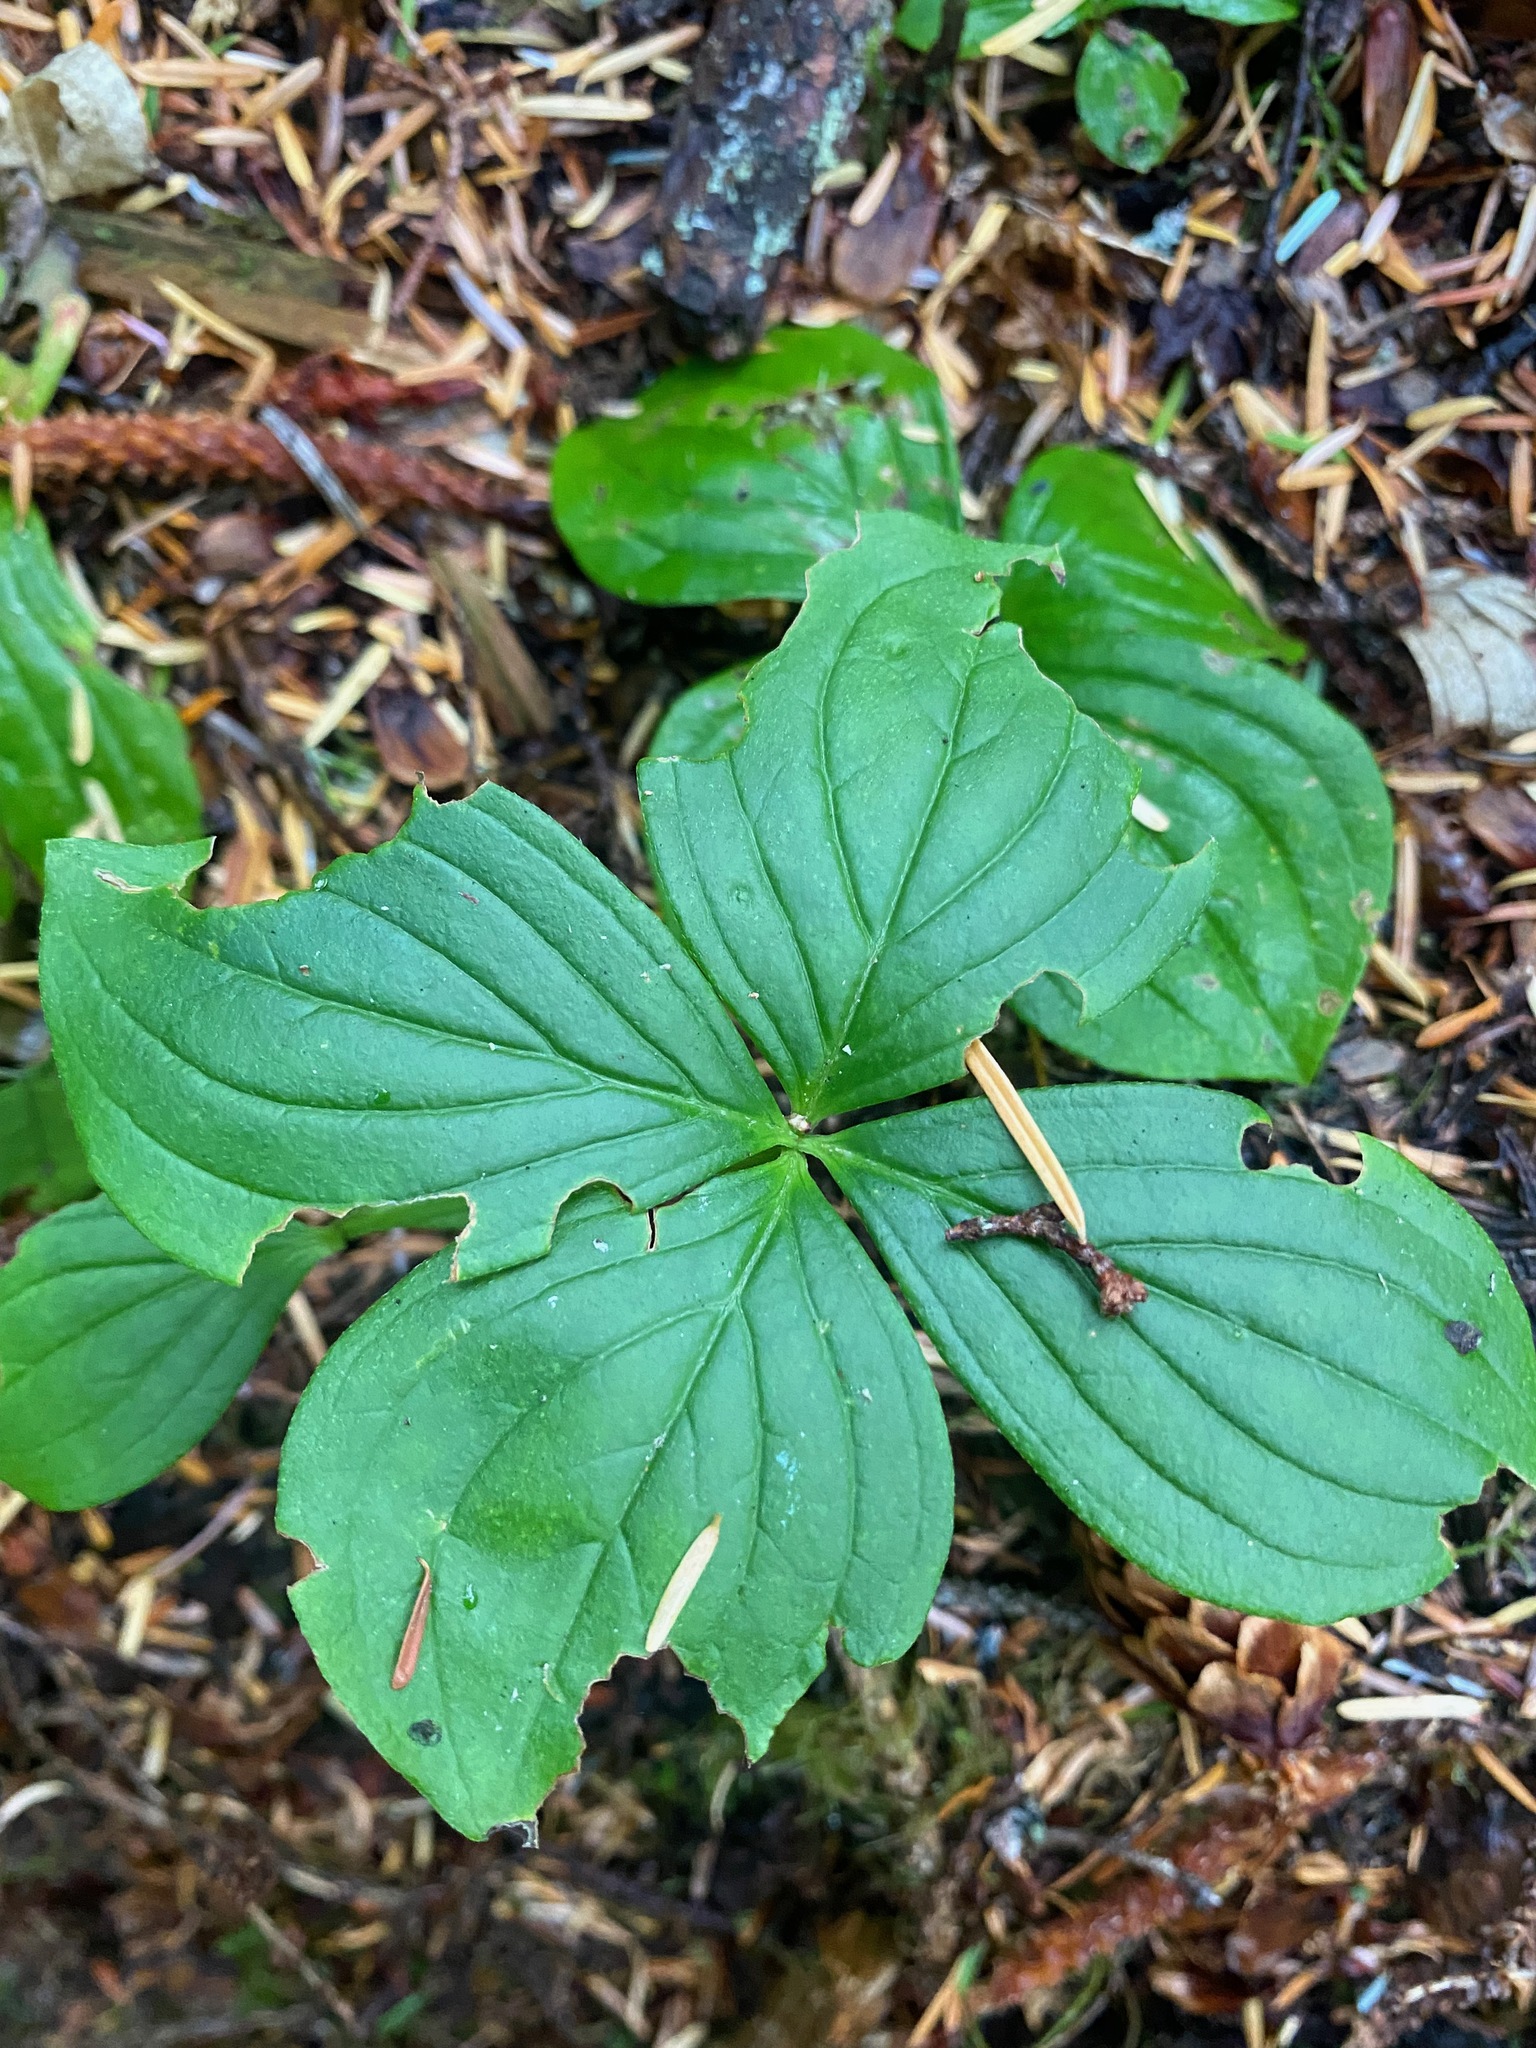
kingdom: Plantae
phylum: Tracheophyta
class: Magnoliopsida
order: Cornales
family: Cornaceae
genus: Cornus
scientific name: Cornus unalaschkensis
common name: Alaska bunchberry
